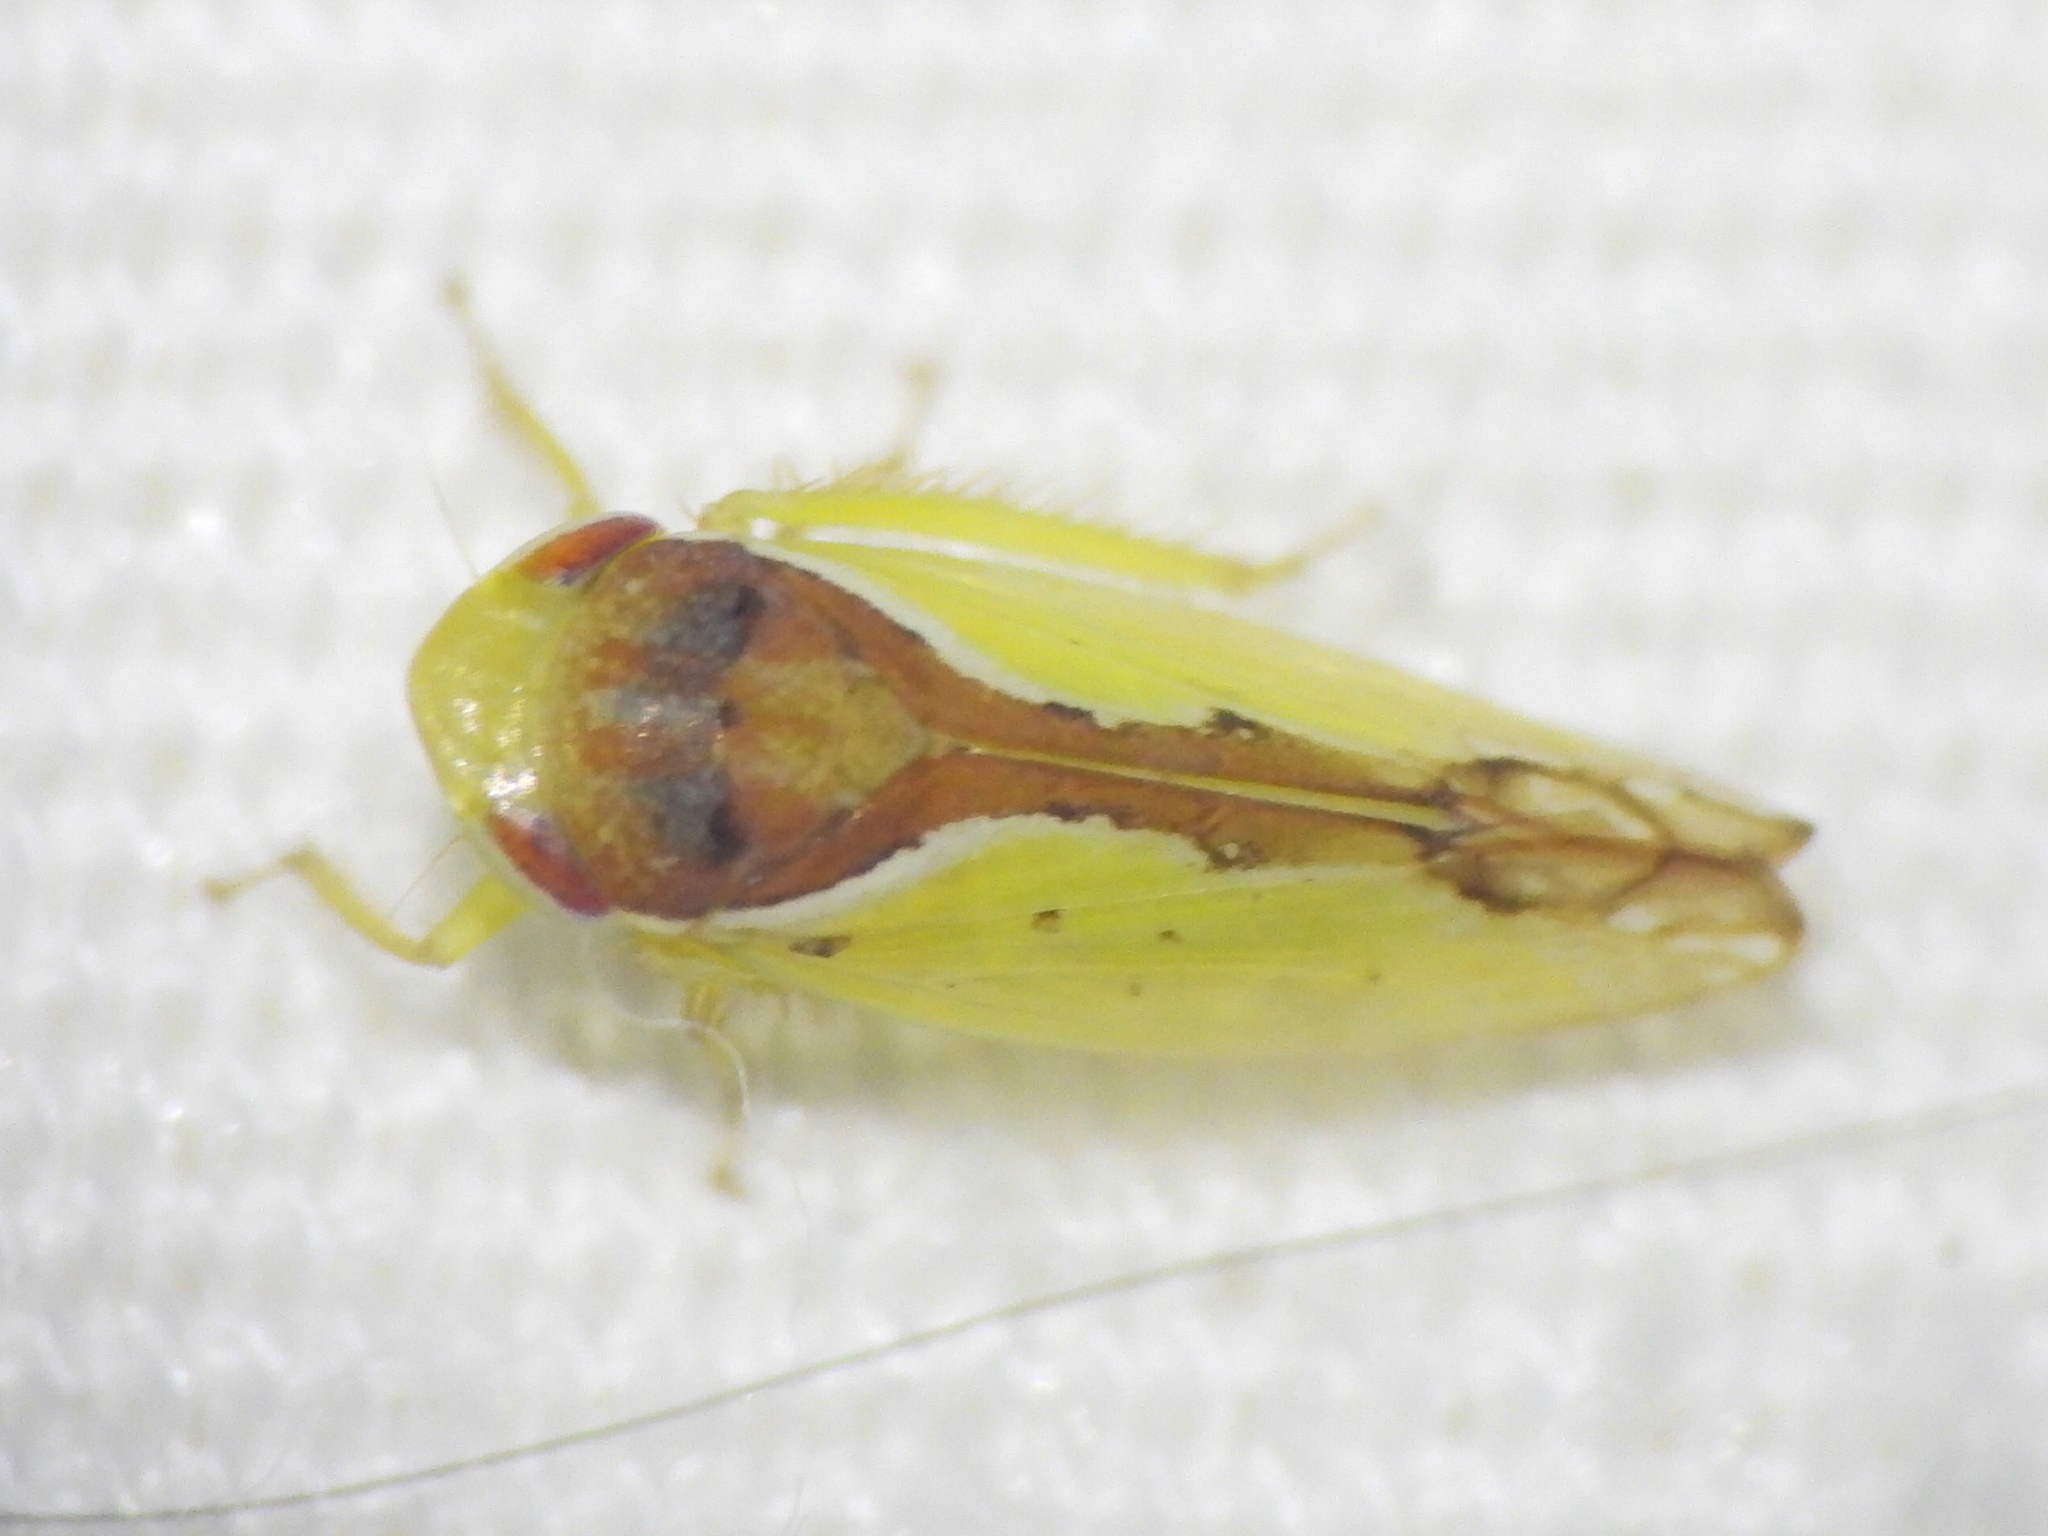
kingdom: Animalia
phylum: Arthropoda
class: Insecta
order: Hemiptera
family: Cicadellidae
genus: Omansobara ing
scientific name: Omansobara ing Omansobara palliolata
